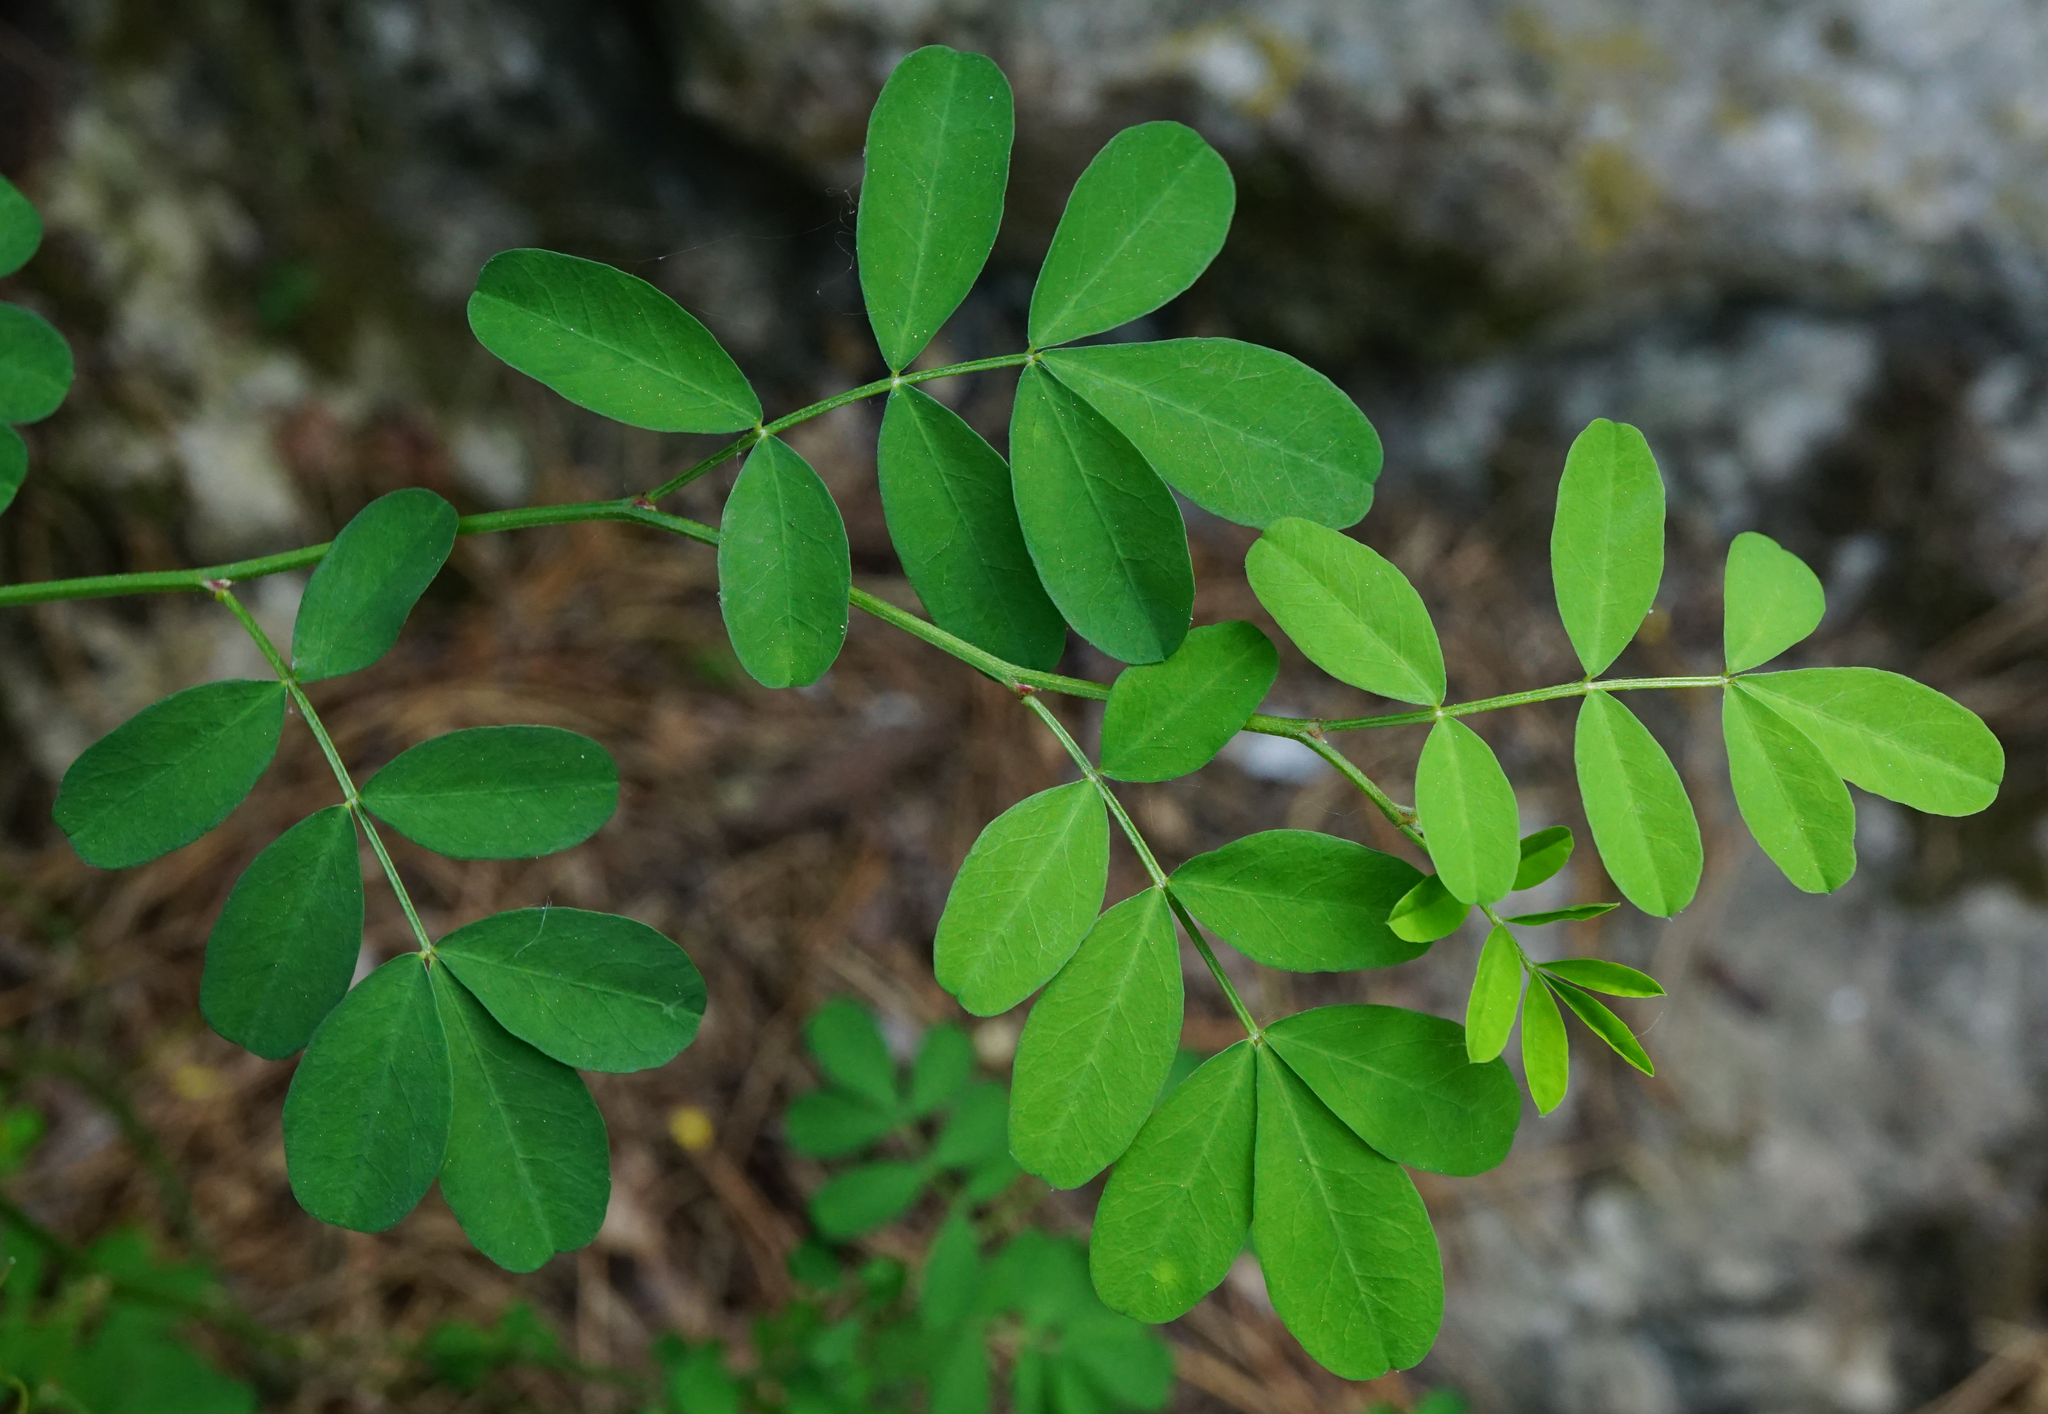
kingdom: Plantae
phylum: Tracheophyta
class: Magnoliopsida
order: Fabales
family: Fabaceae
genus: Hippocrepis
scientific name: Hippocrepis emerus
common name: Scorpion senna
